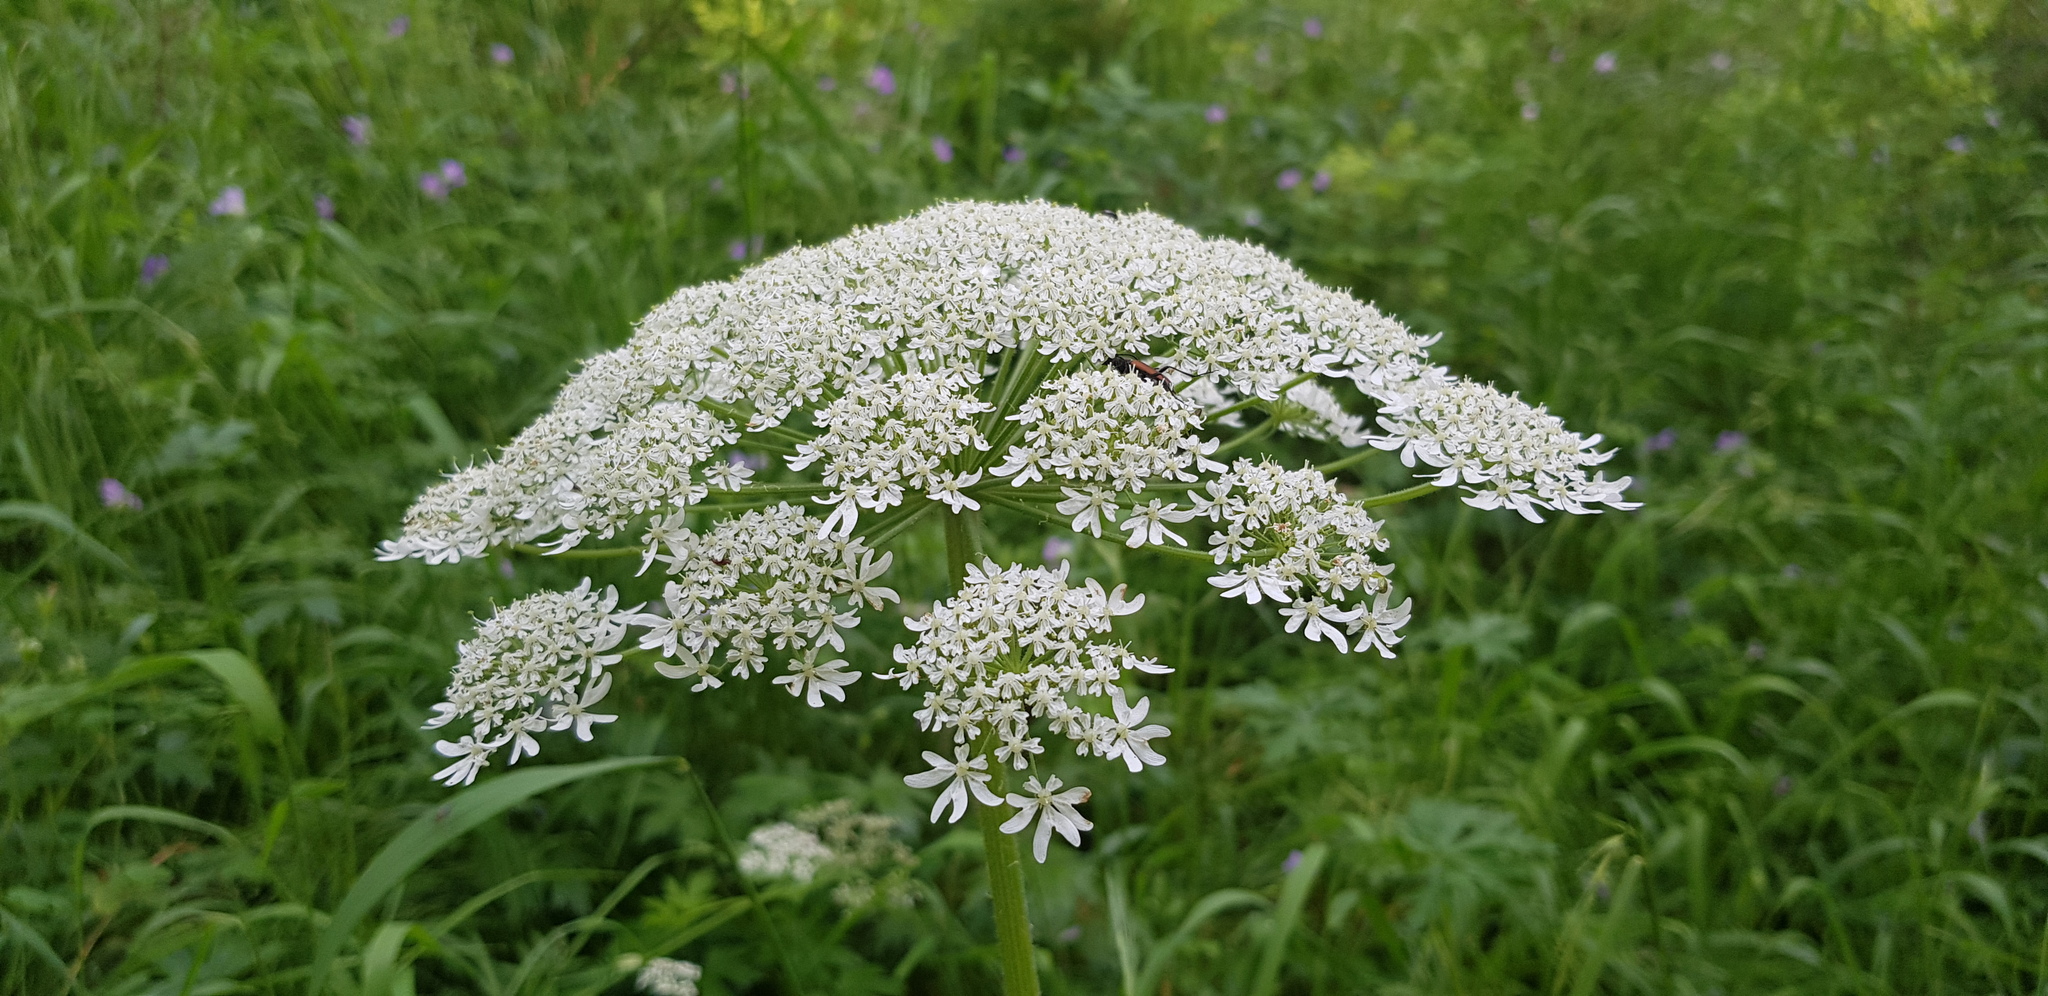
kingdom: Plantae
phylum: Tracheophyta
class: Magnoliopsida
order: Apiales
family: Apiaceae
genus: Heracleum
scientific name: Heracleum dissectum
